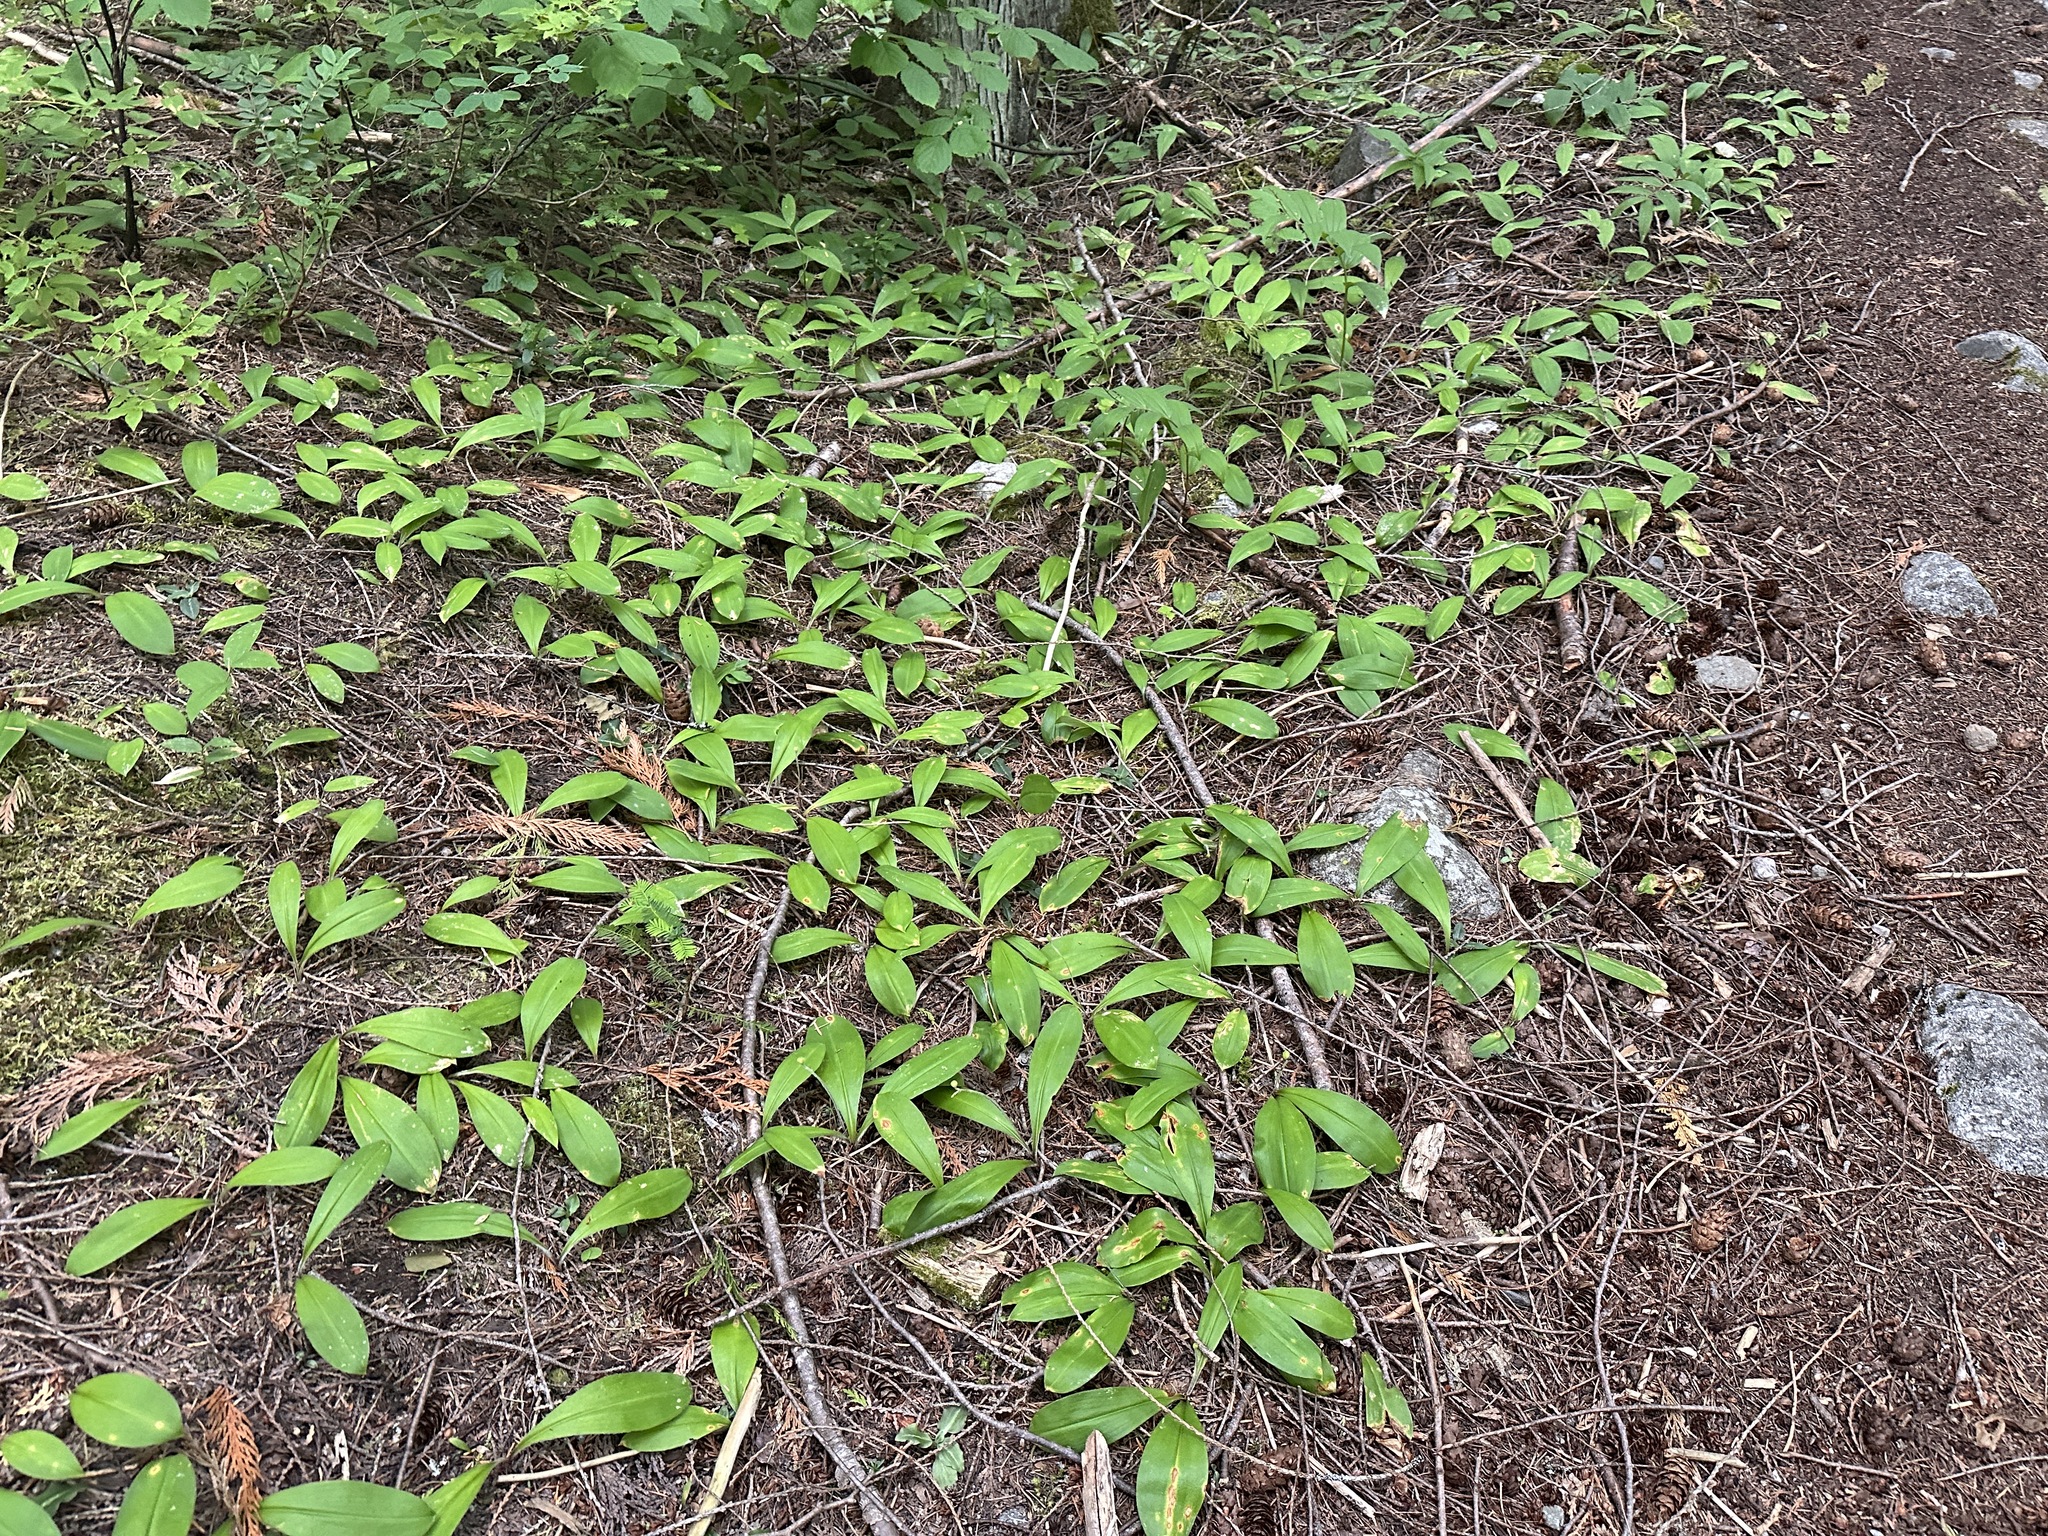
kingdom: Plantae
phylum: Tracheophyta
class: Liliopsida
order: Liliales
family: Liliaceae
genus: Clintonia
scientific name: Clintonia uniflora
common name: Queen's cup
